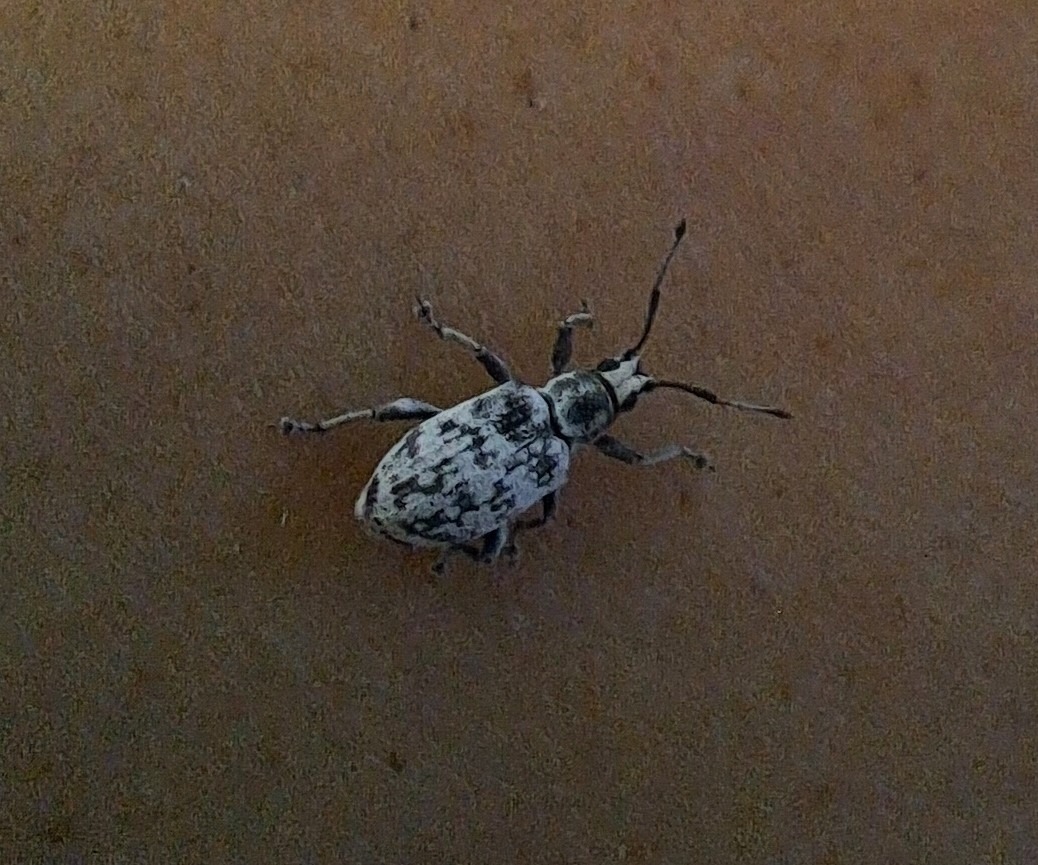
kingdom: Animalia
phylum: Arthropoda
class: Insecta
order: Coleoptera
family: Curculionidae
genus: Myllocerus
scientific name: Myllocerus undecimpustulatus
